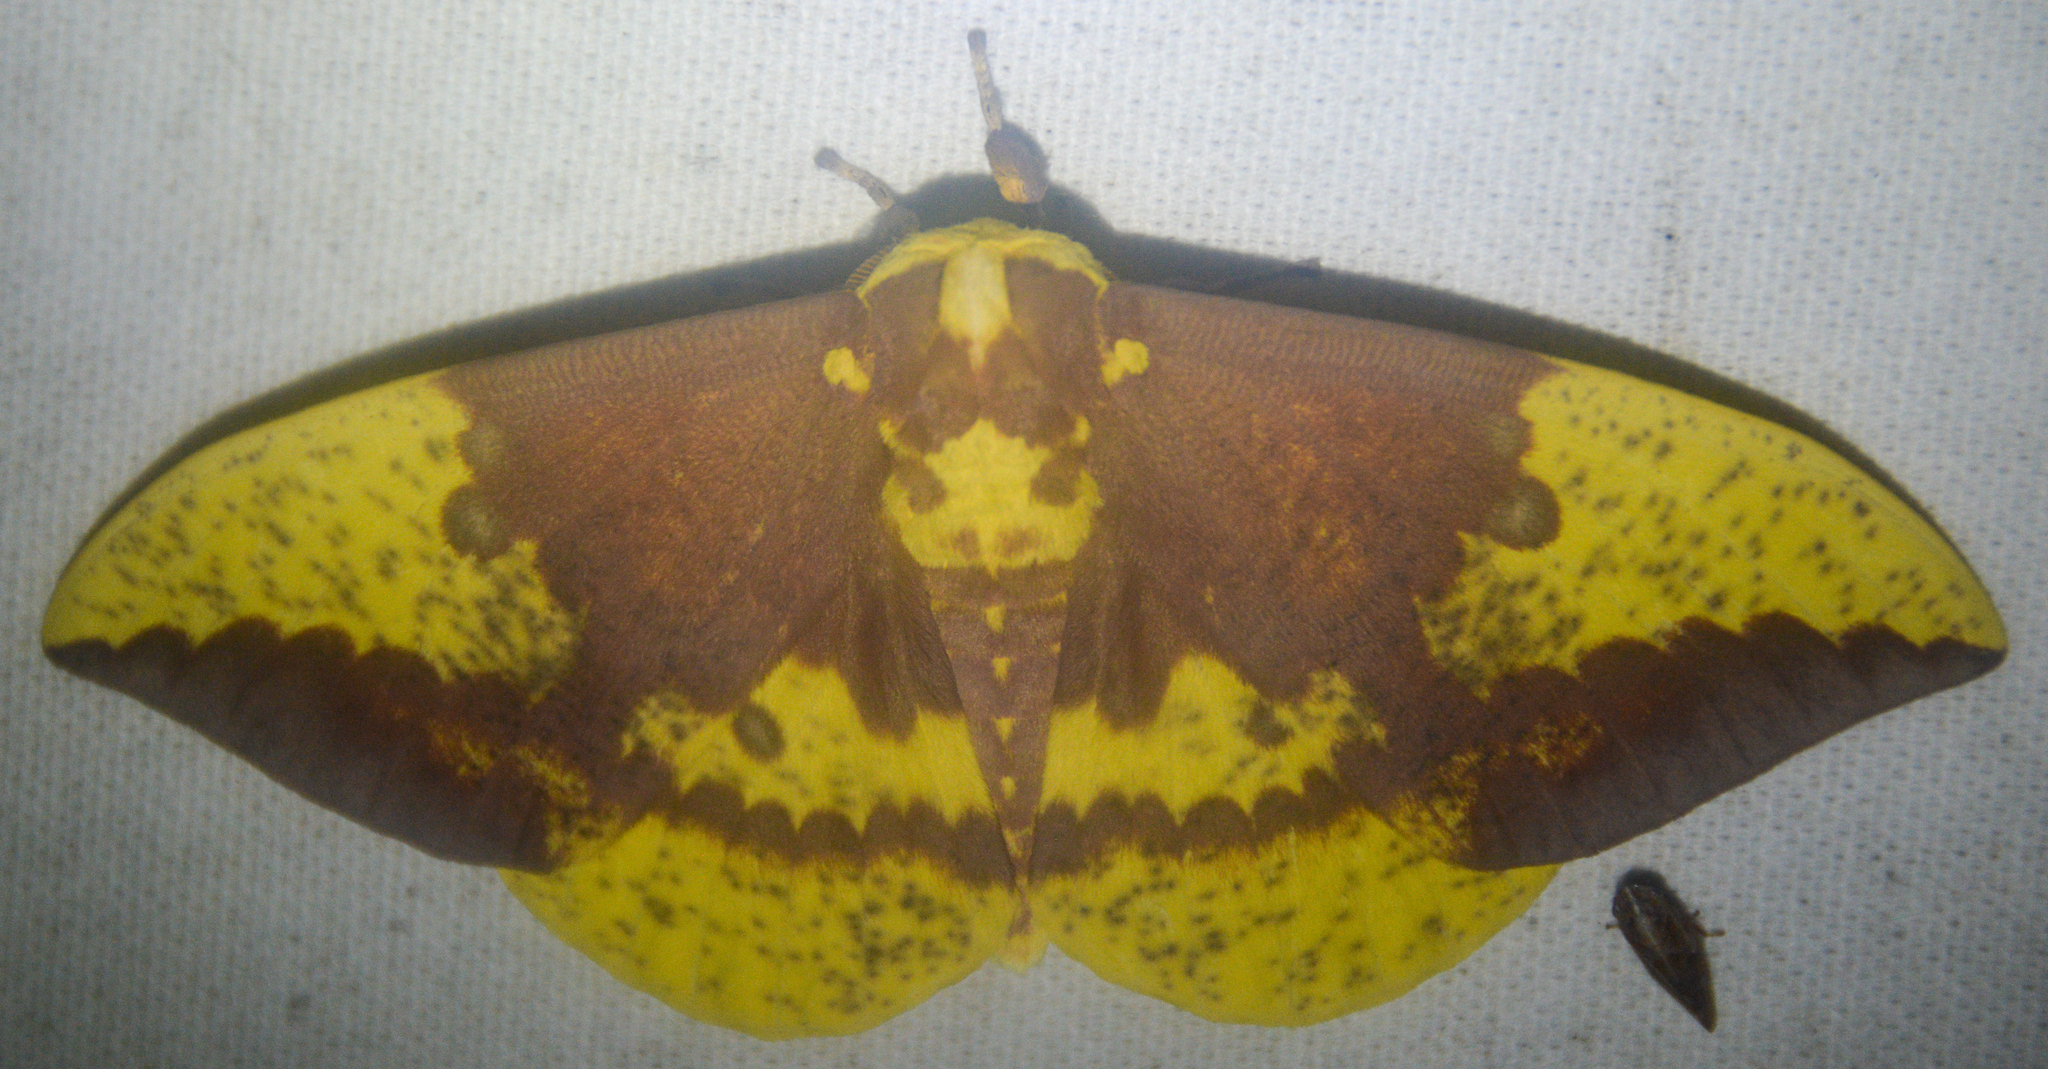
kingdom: Animalia
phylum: Arthropoda
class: Insecta
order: Lepidoptera
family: Saturniidae
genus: Eacles
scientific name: Eacles imperialis
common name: Imperial moth
